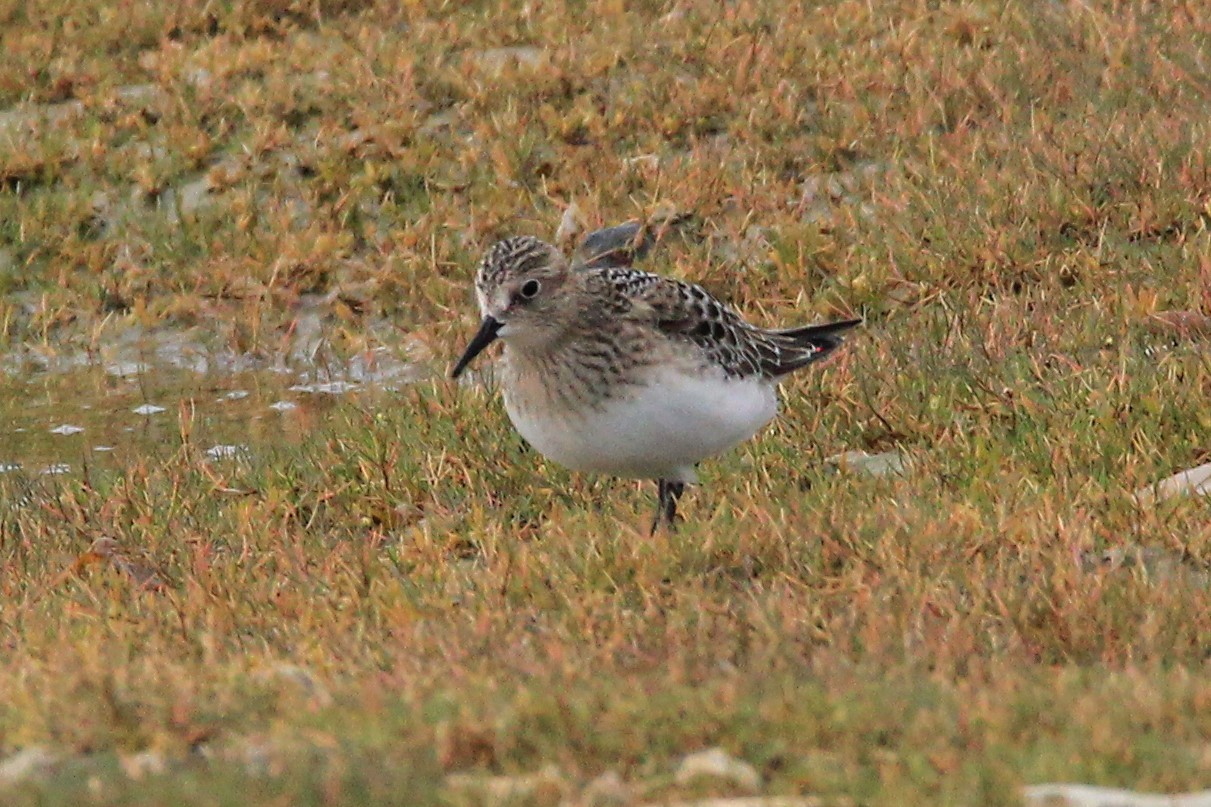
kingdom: Animalia
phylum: Chordata
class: Aves
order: Charadriiformes
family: Scolopacidae
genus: Calidris
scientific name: Calidris bairdii
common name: Baird's sandpiper
